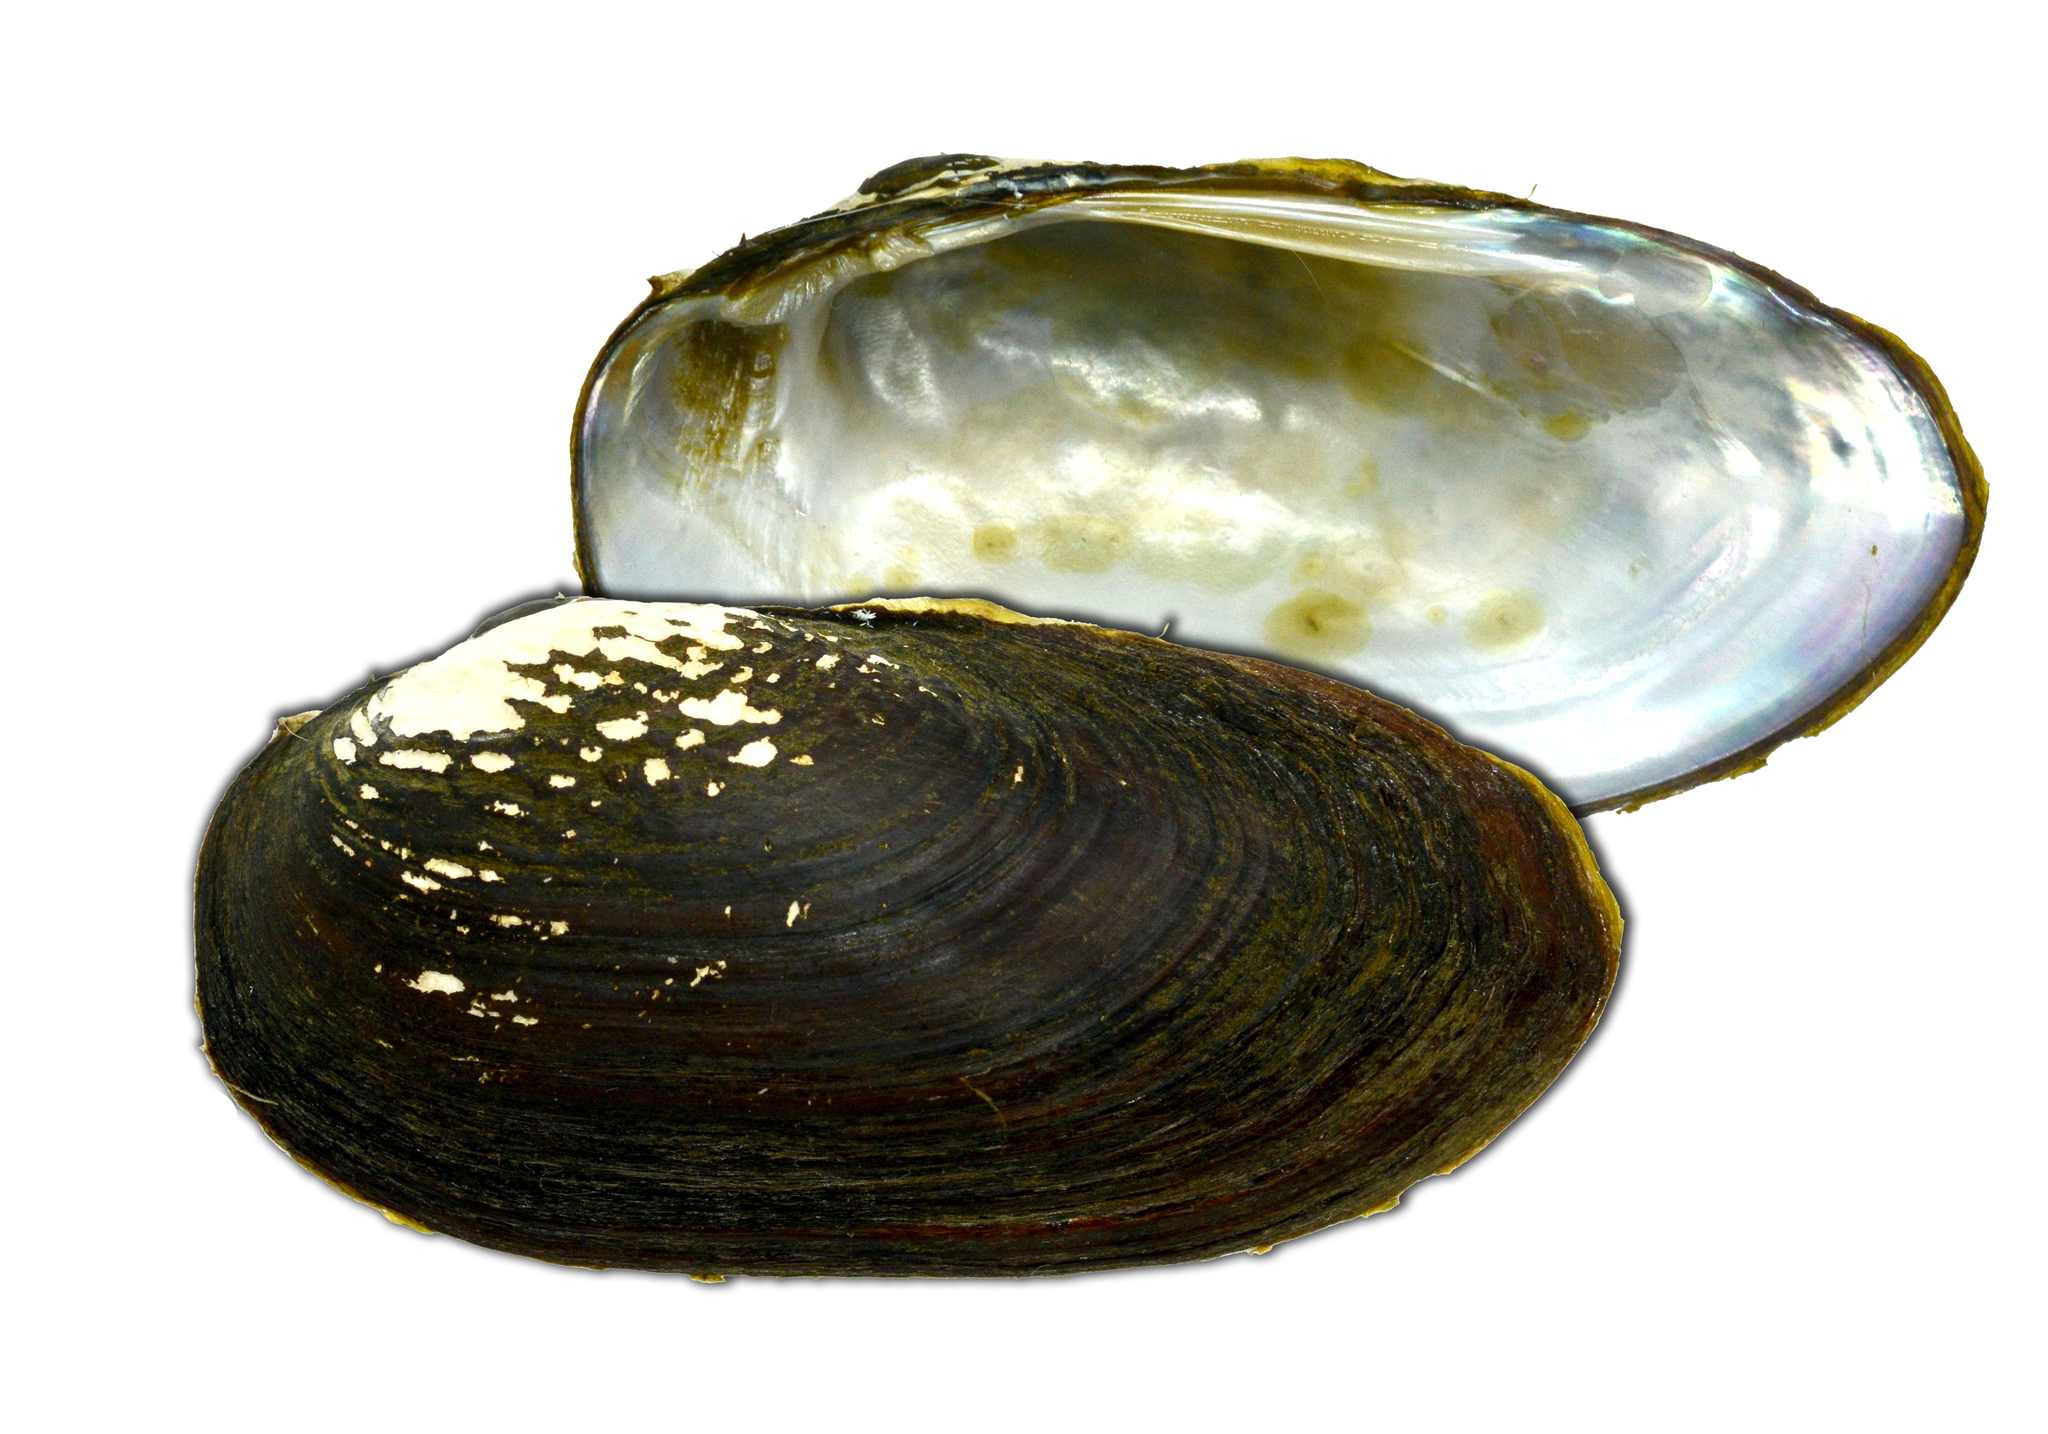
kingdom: Animalia
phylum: Mollusca
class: Bivalvia
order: Unionida
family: Unionidae
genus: Nodularia
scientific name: Nodularia douglasiae
